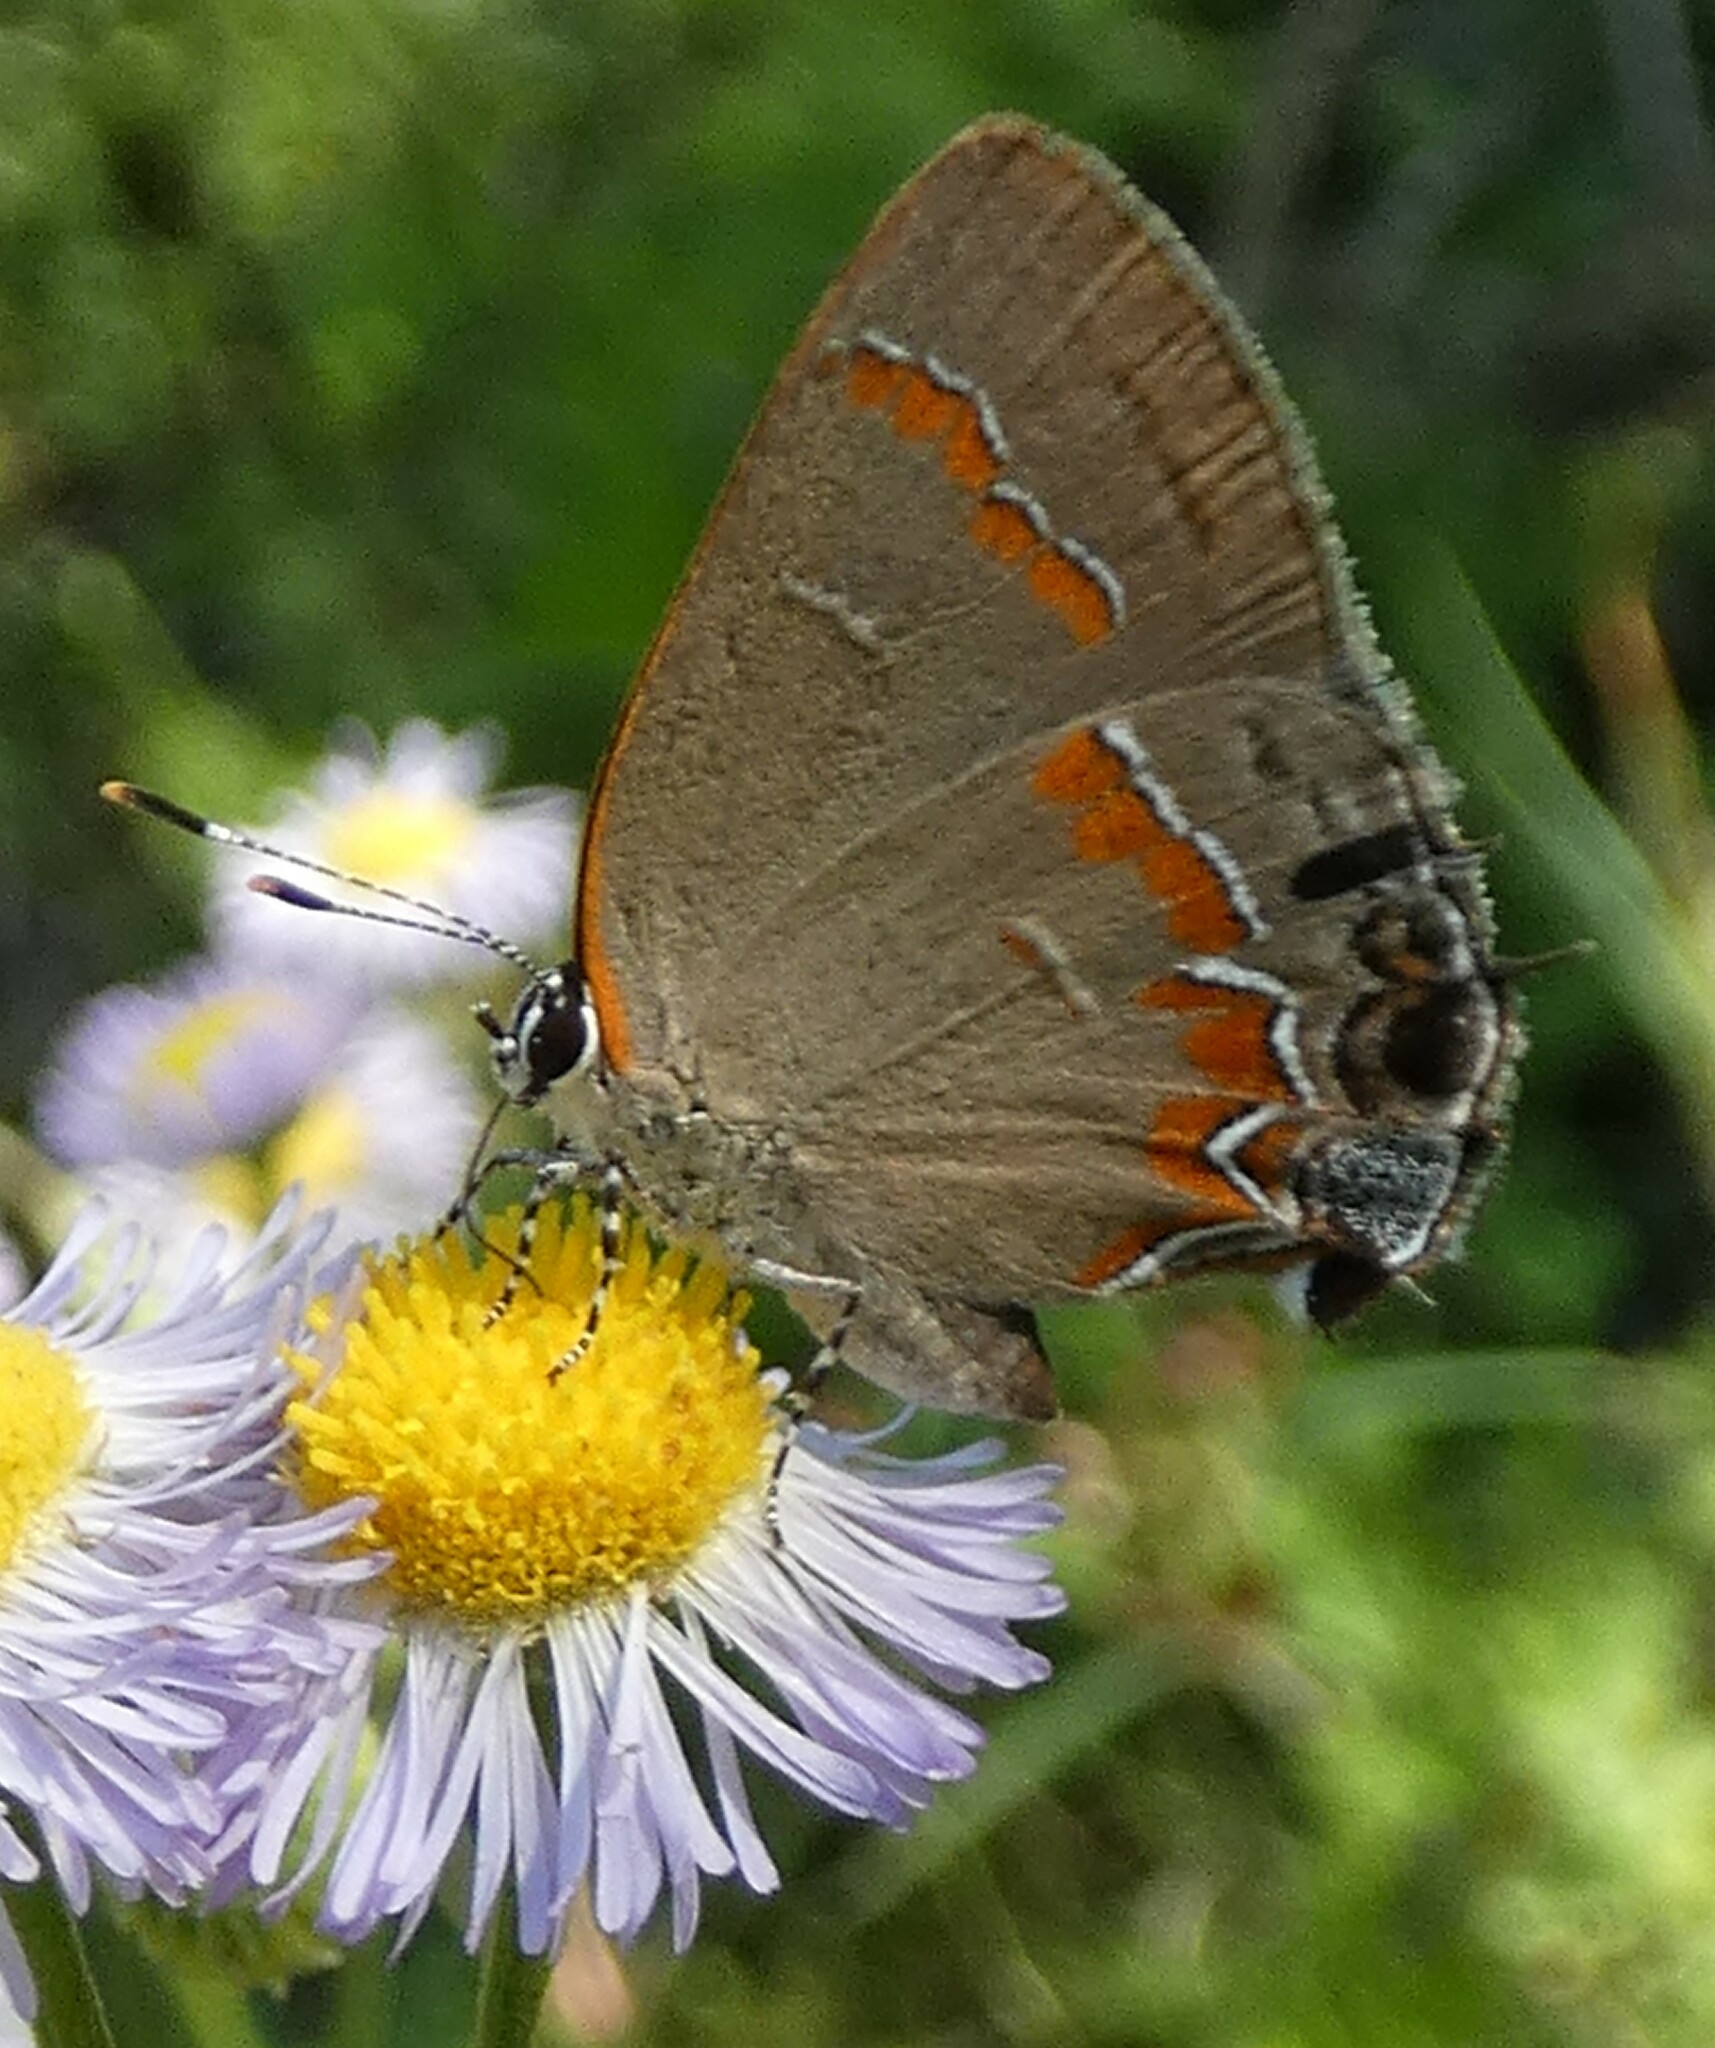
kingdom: Animalia
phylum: Arthropoda
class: Insecta
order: Lepidoptera
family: Lycaenidae
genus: Calycopis
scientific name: Calycopis cecrops
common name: Red-banded hairstreak
